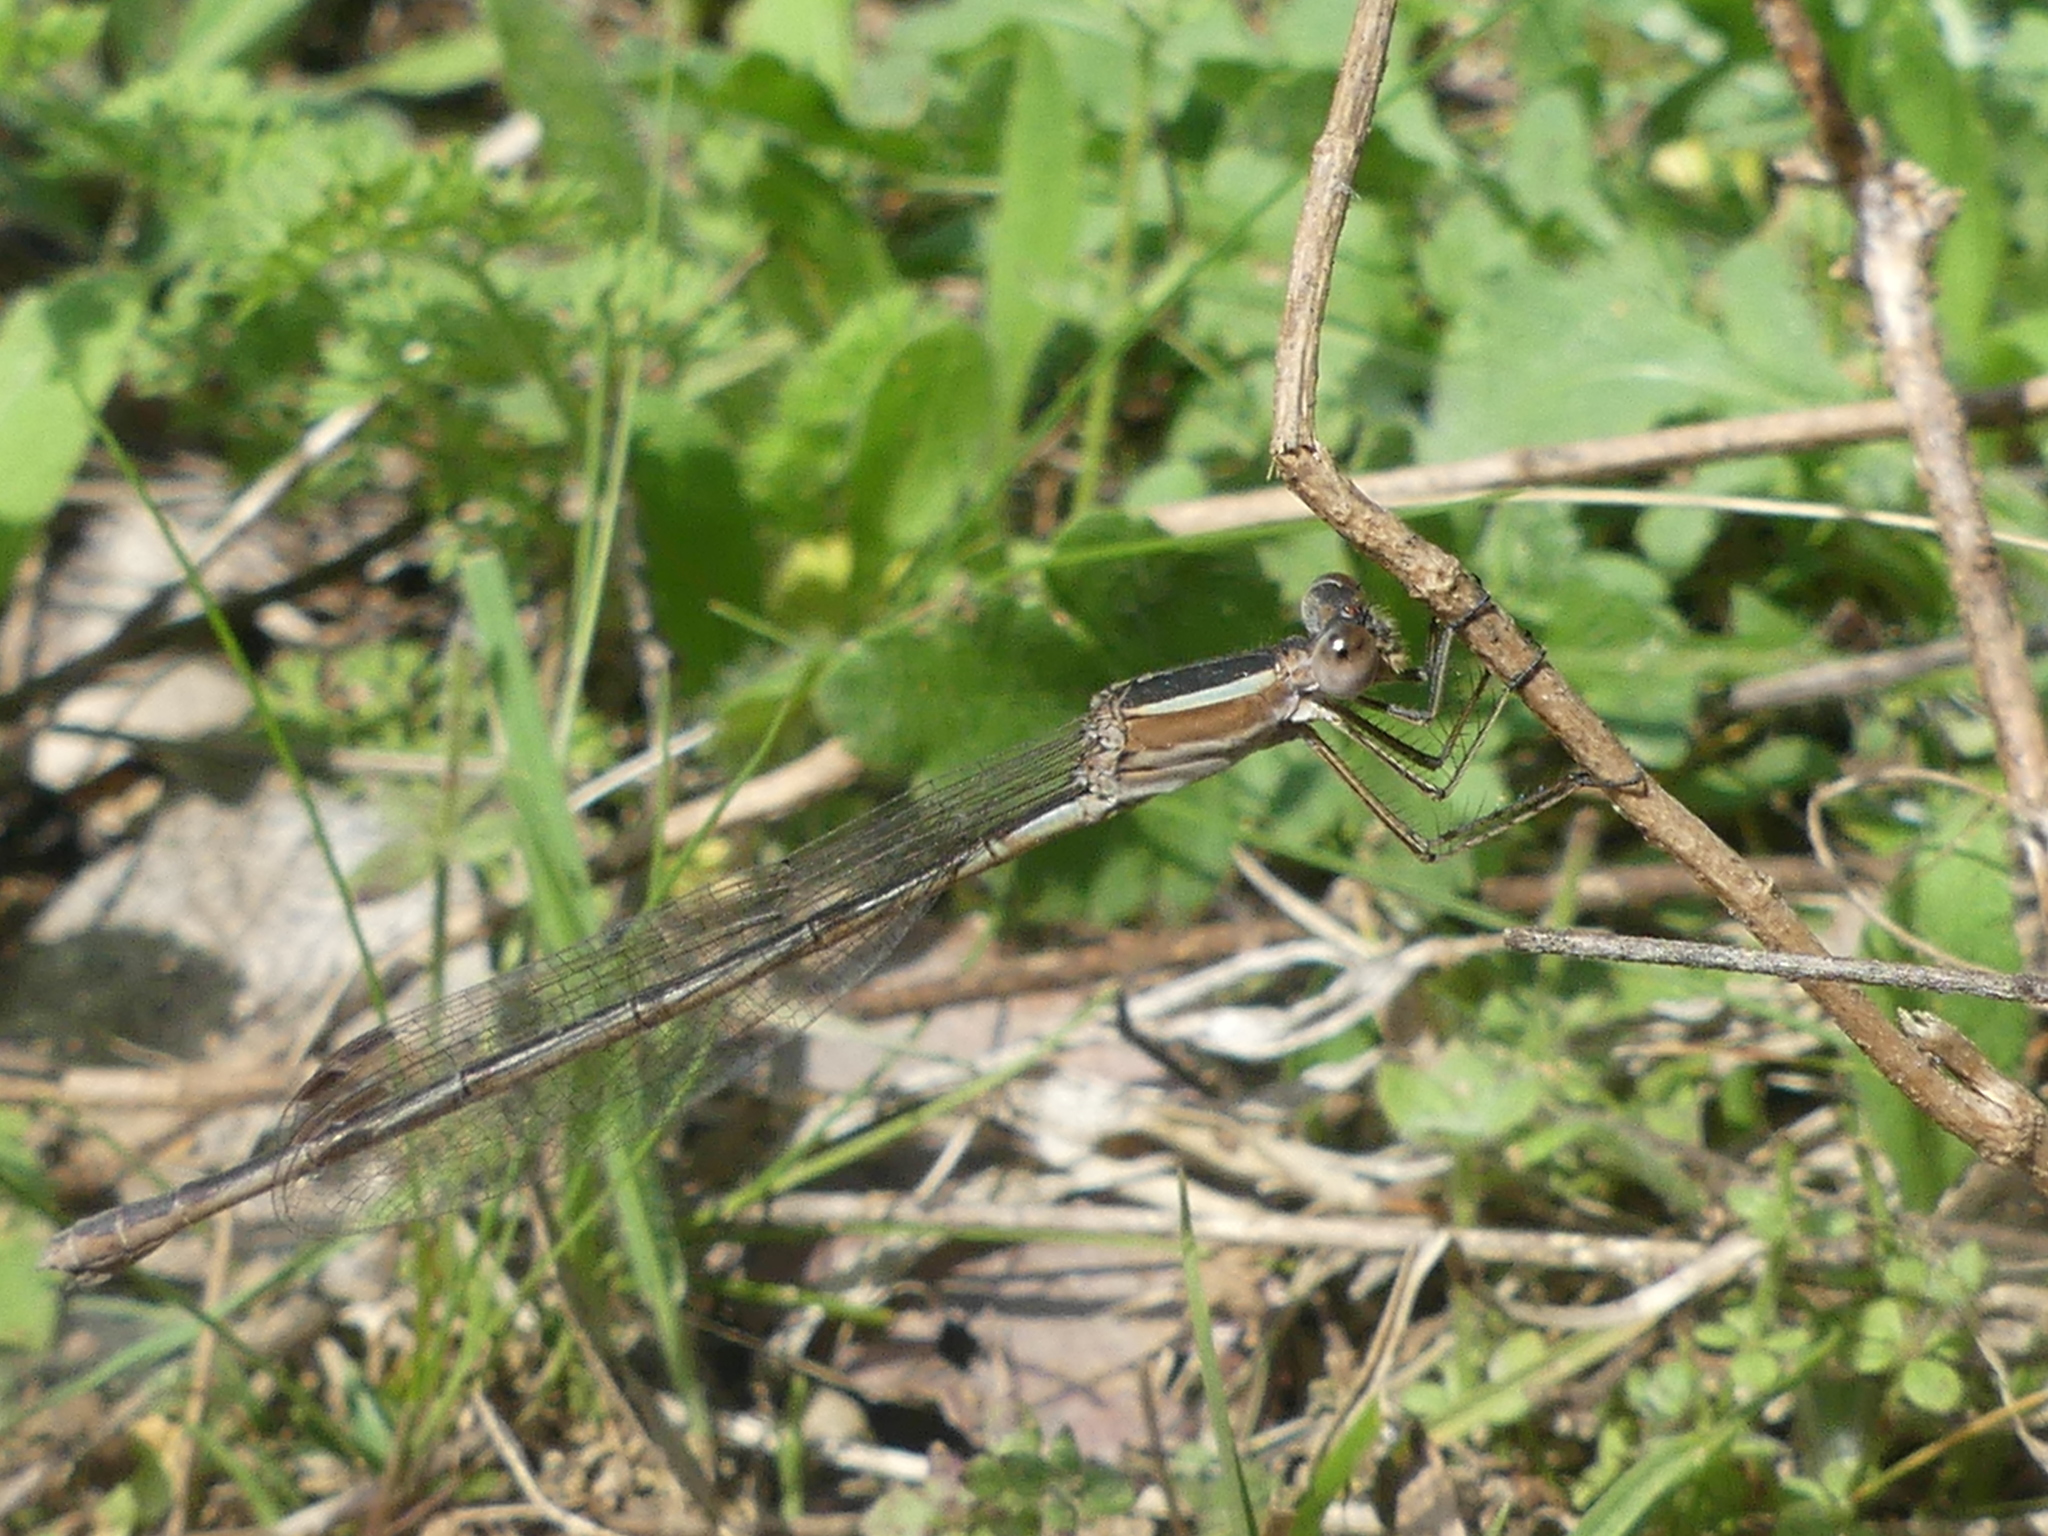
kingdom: Animalia
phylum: Arthropoda
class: Insecta
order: Odonata
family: Lestidae
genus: Lestes
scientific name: Lestes alacer
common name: Plateau spreadwing
